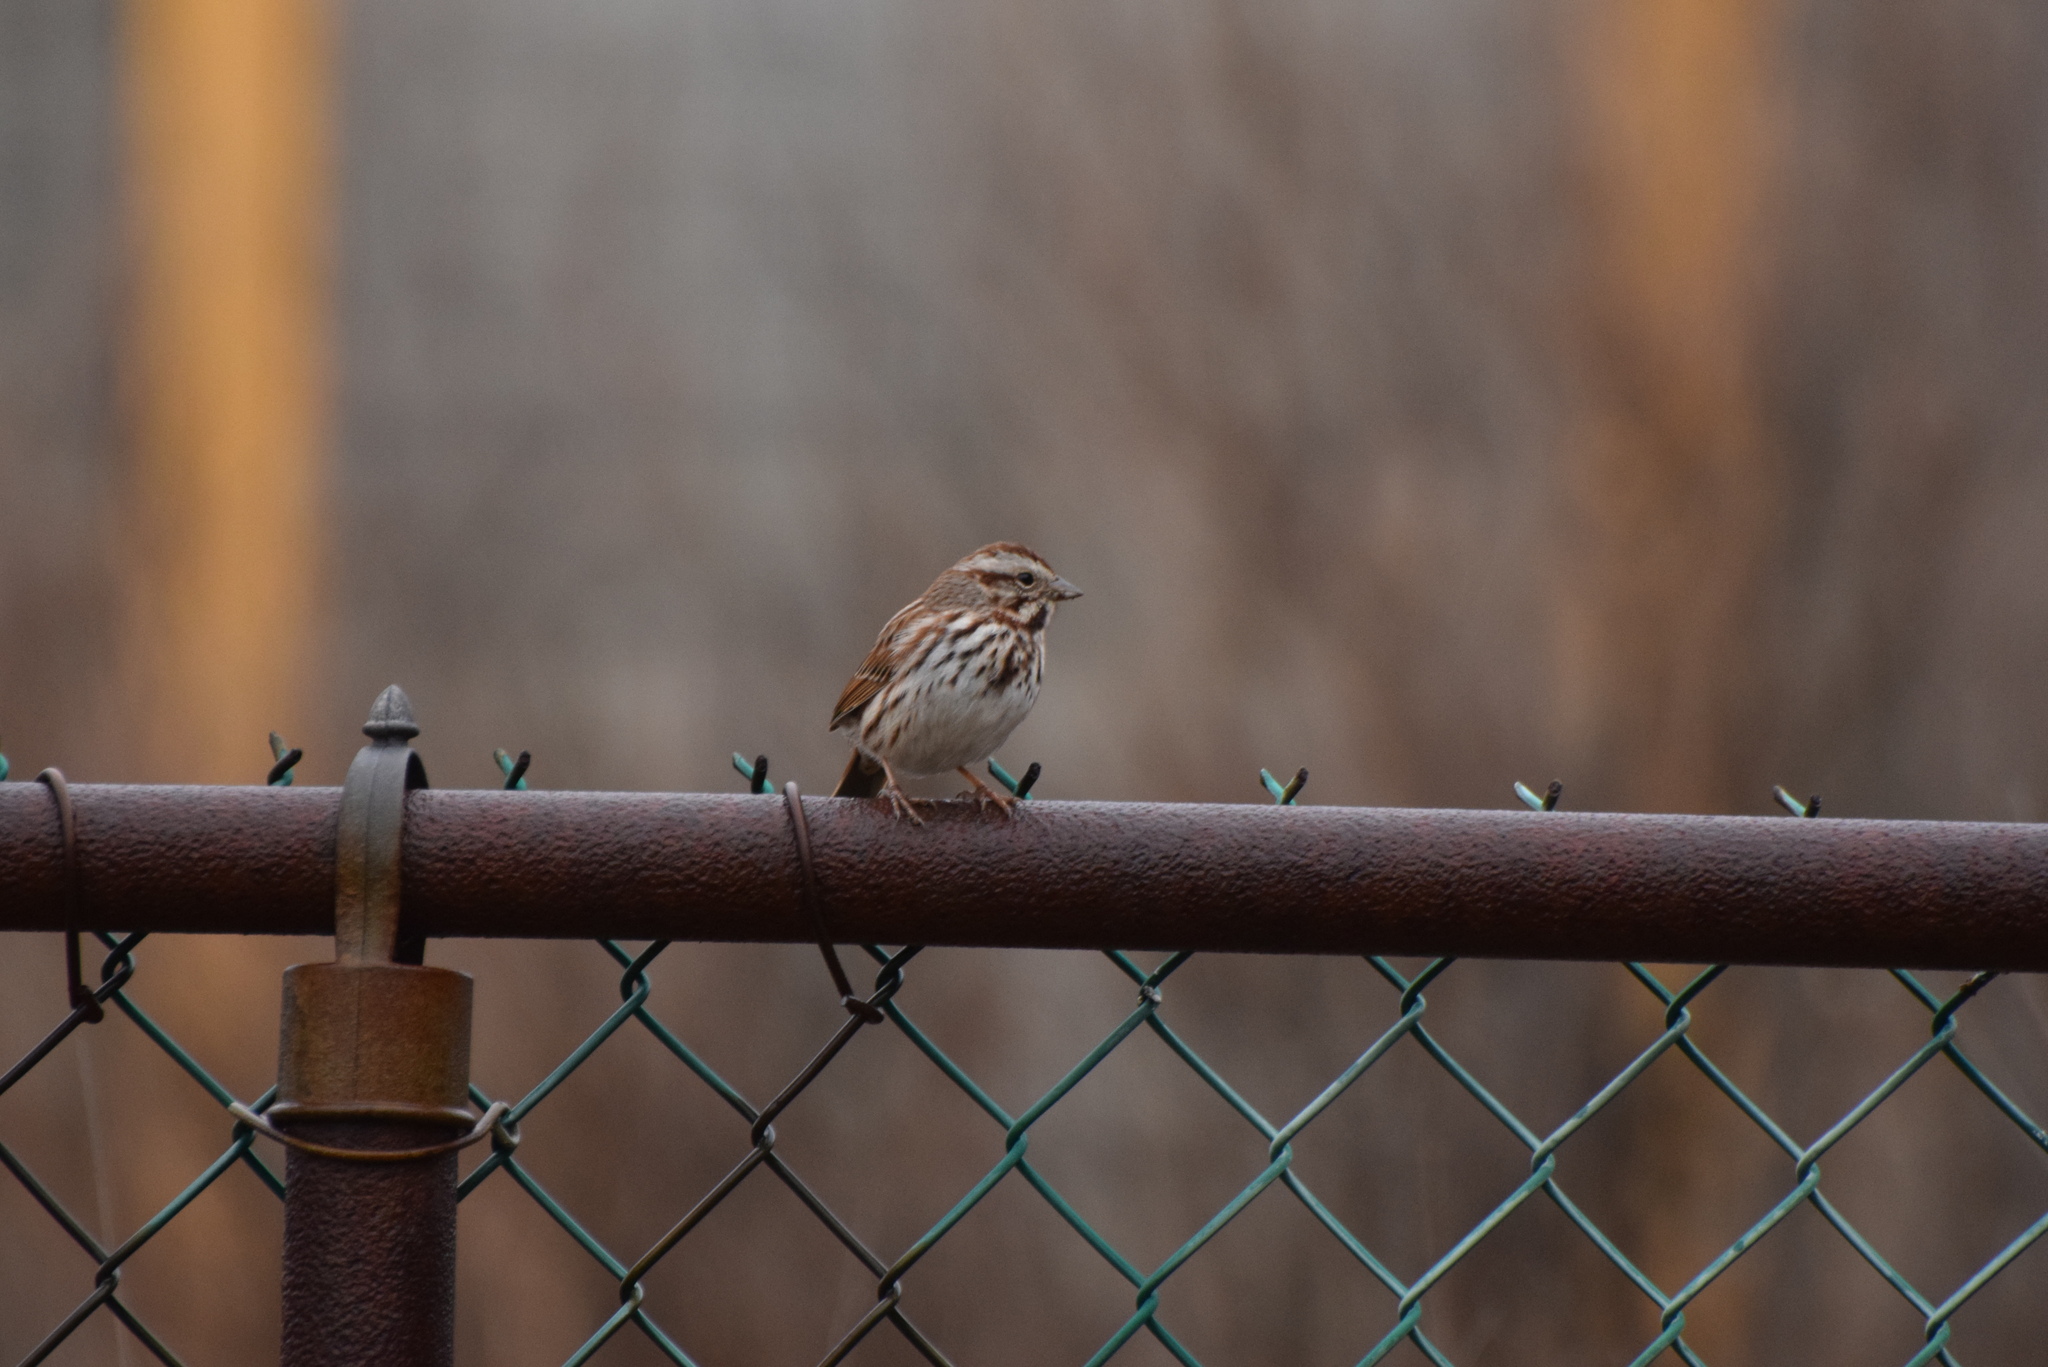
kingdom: Animalia
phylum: Chordata
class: Aves
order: Passeriformes
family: Passerellidae
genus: Melospiza
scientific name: Melospiza melodia
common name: Song sparrow
